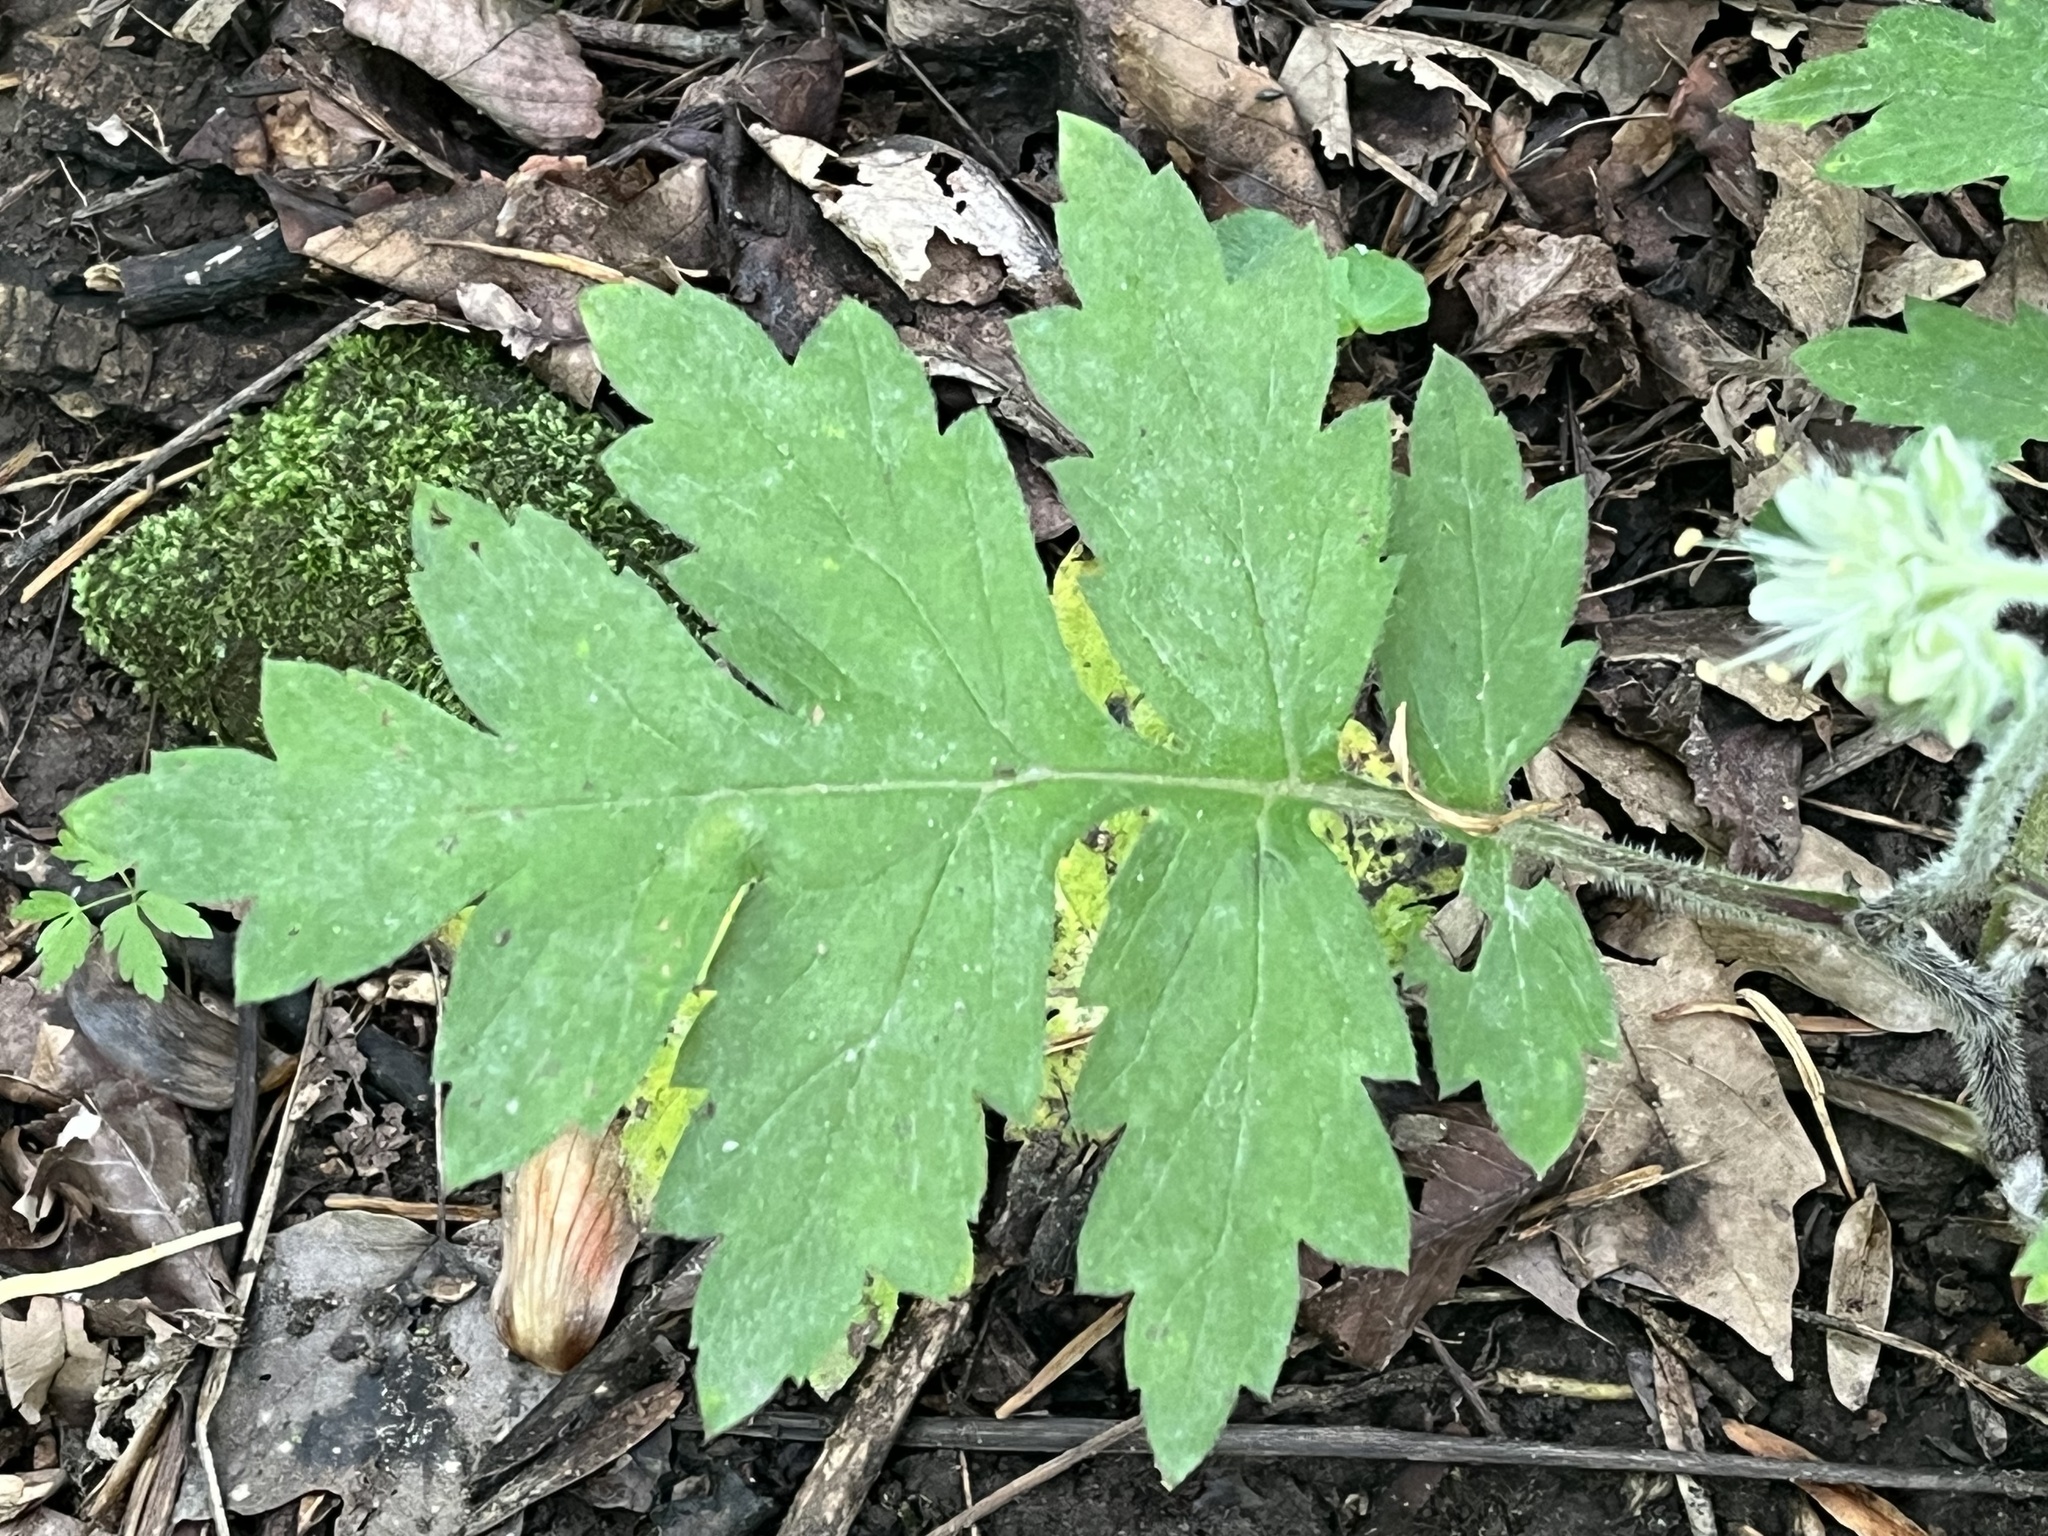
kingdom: Plantae
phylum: Tracheophyta
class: Magnoliopsida
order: Boraginales
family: Hydrophyllaceae
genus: Hydrophyllum
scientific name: Hydrophyllum macrophyllum
